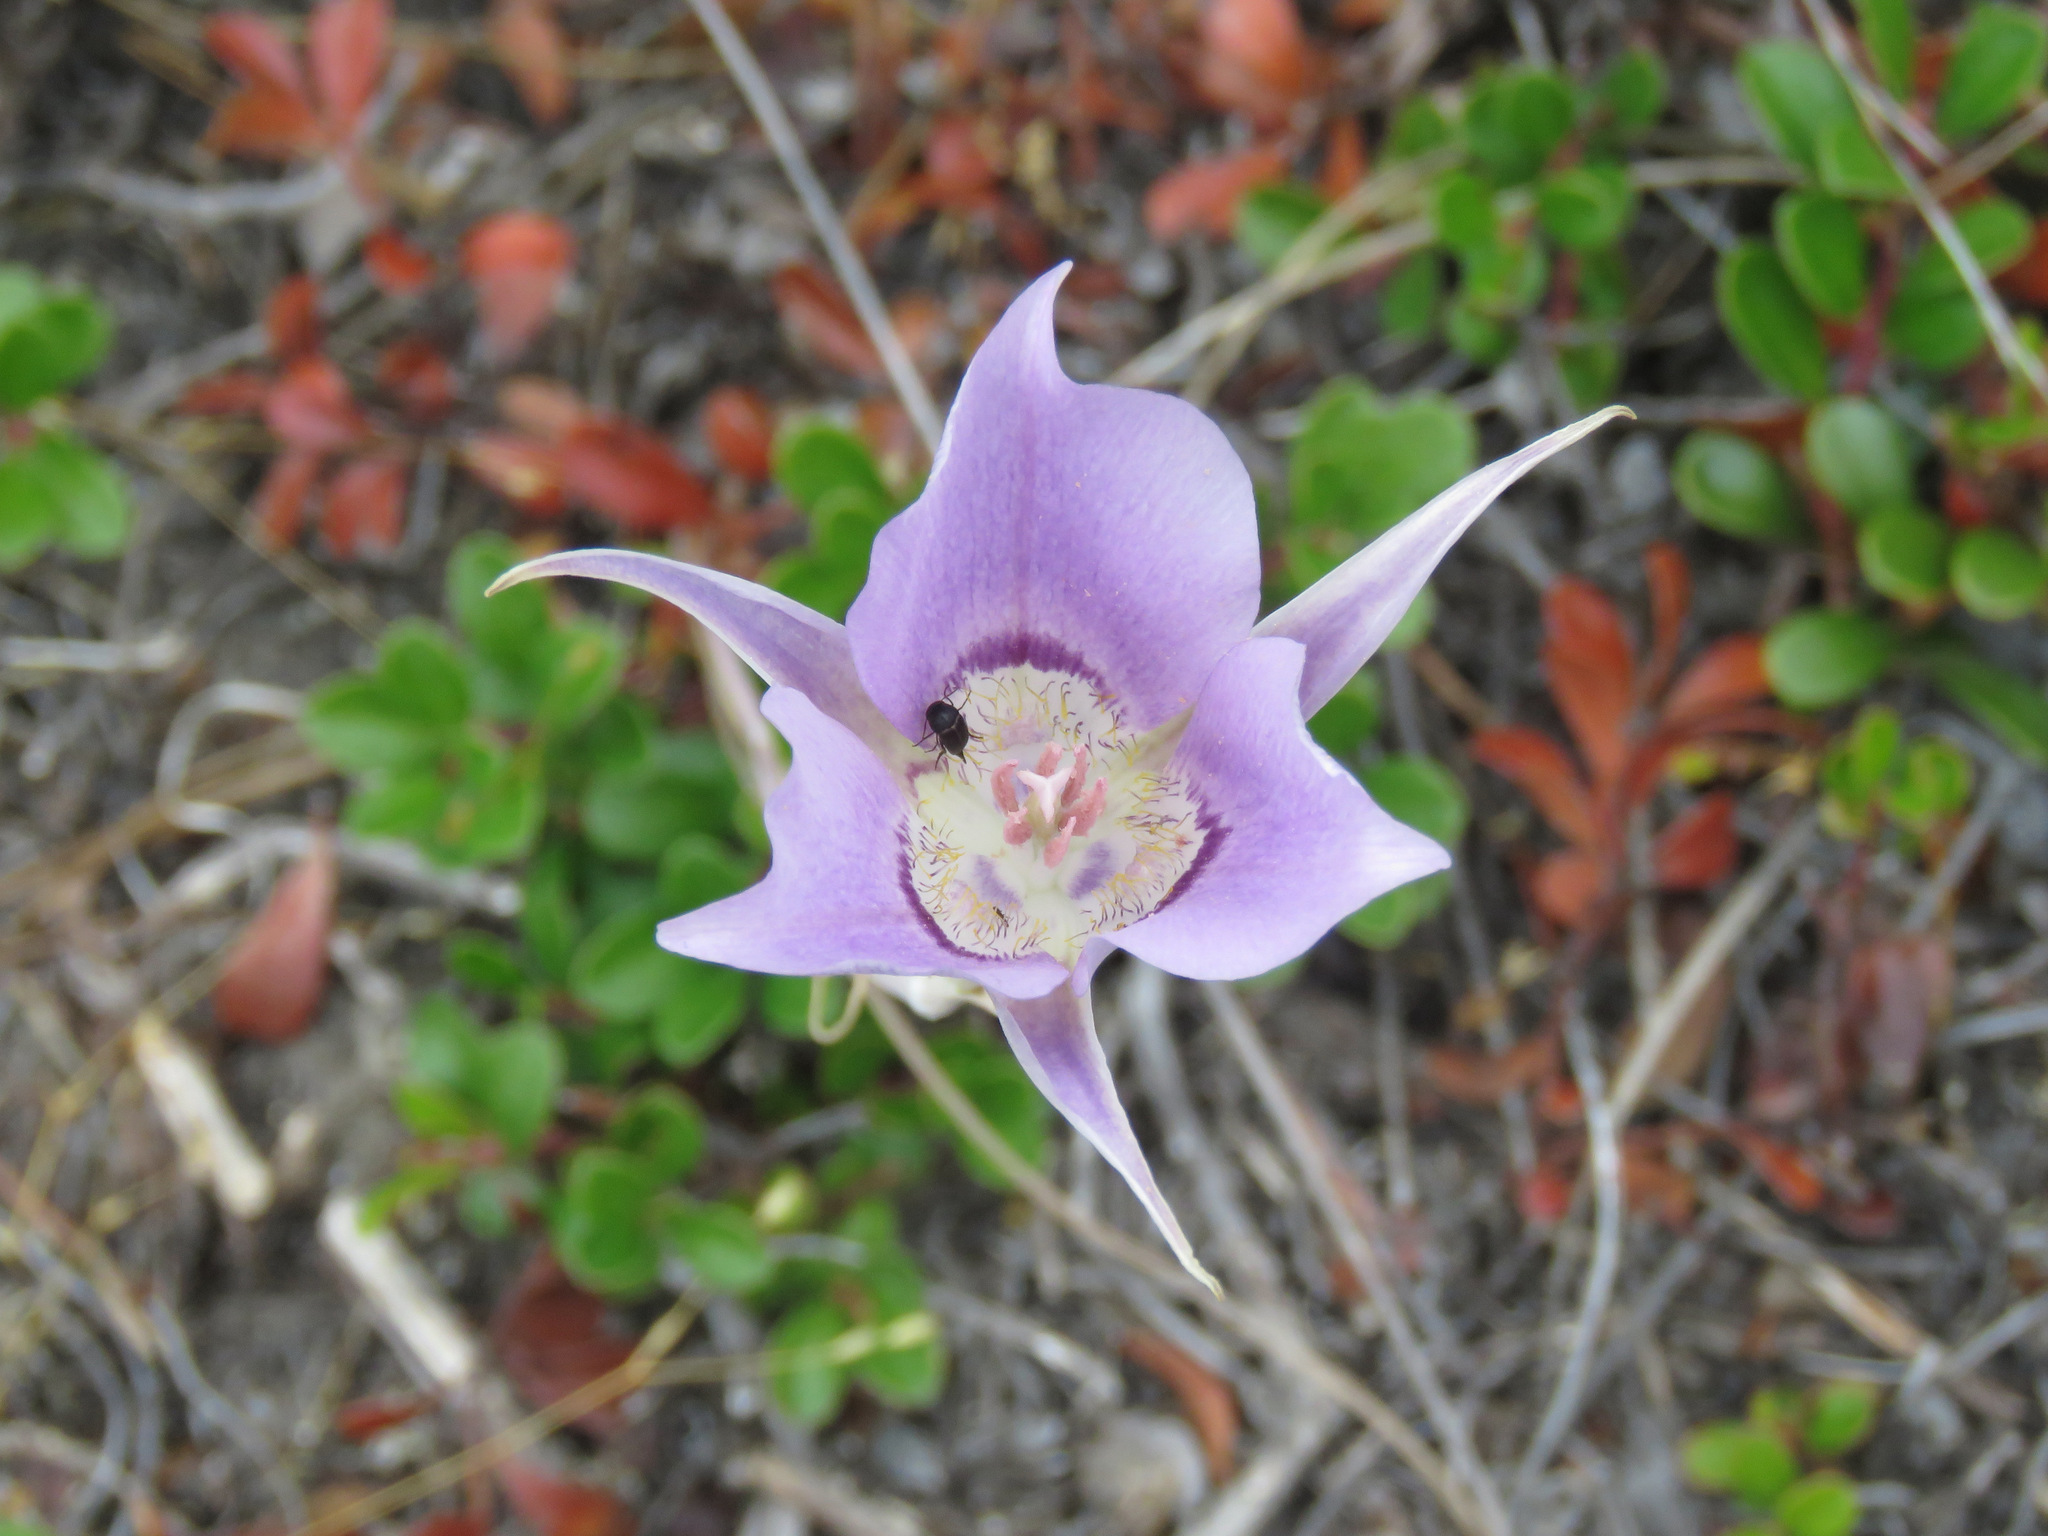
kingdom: Plantae
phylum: Tracheophyta
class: Liliopsida
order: Liliales
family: Liliaceae
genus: Calochortus
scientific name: Calochortus macrocarpus
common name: Green-band mariposa lily
